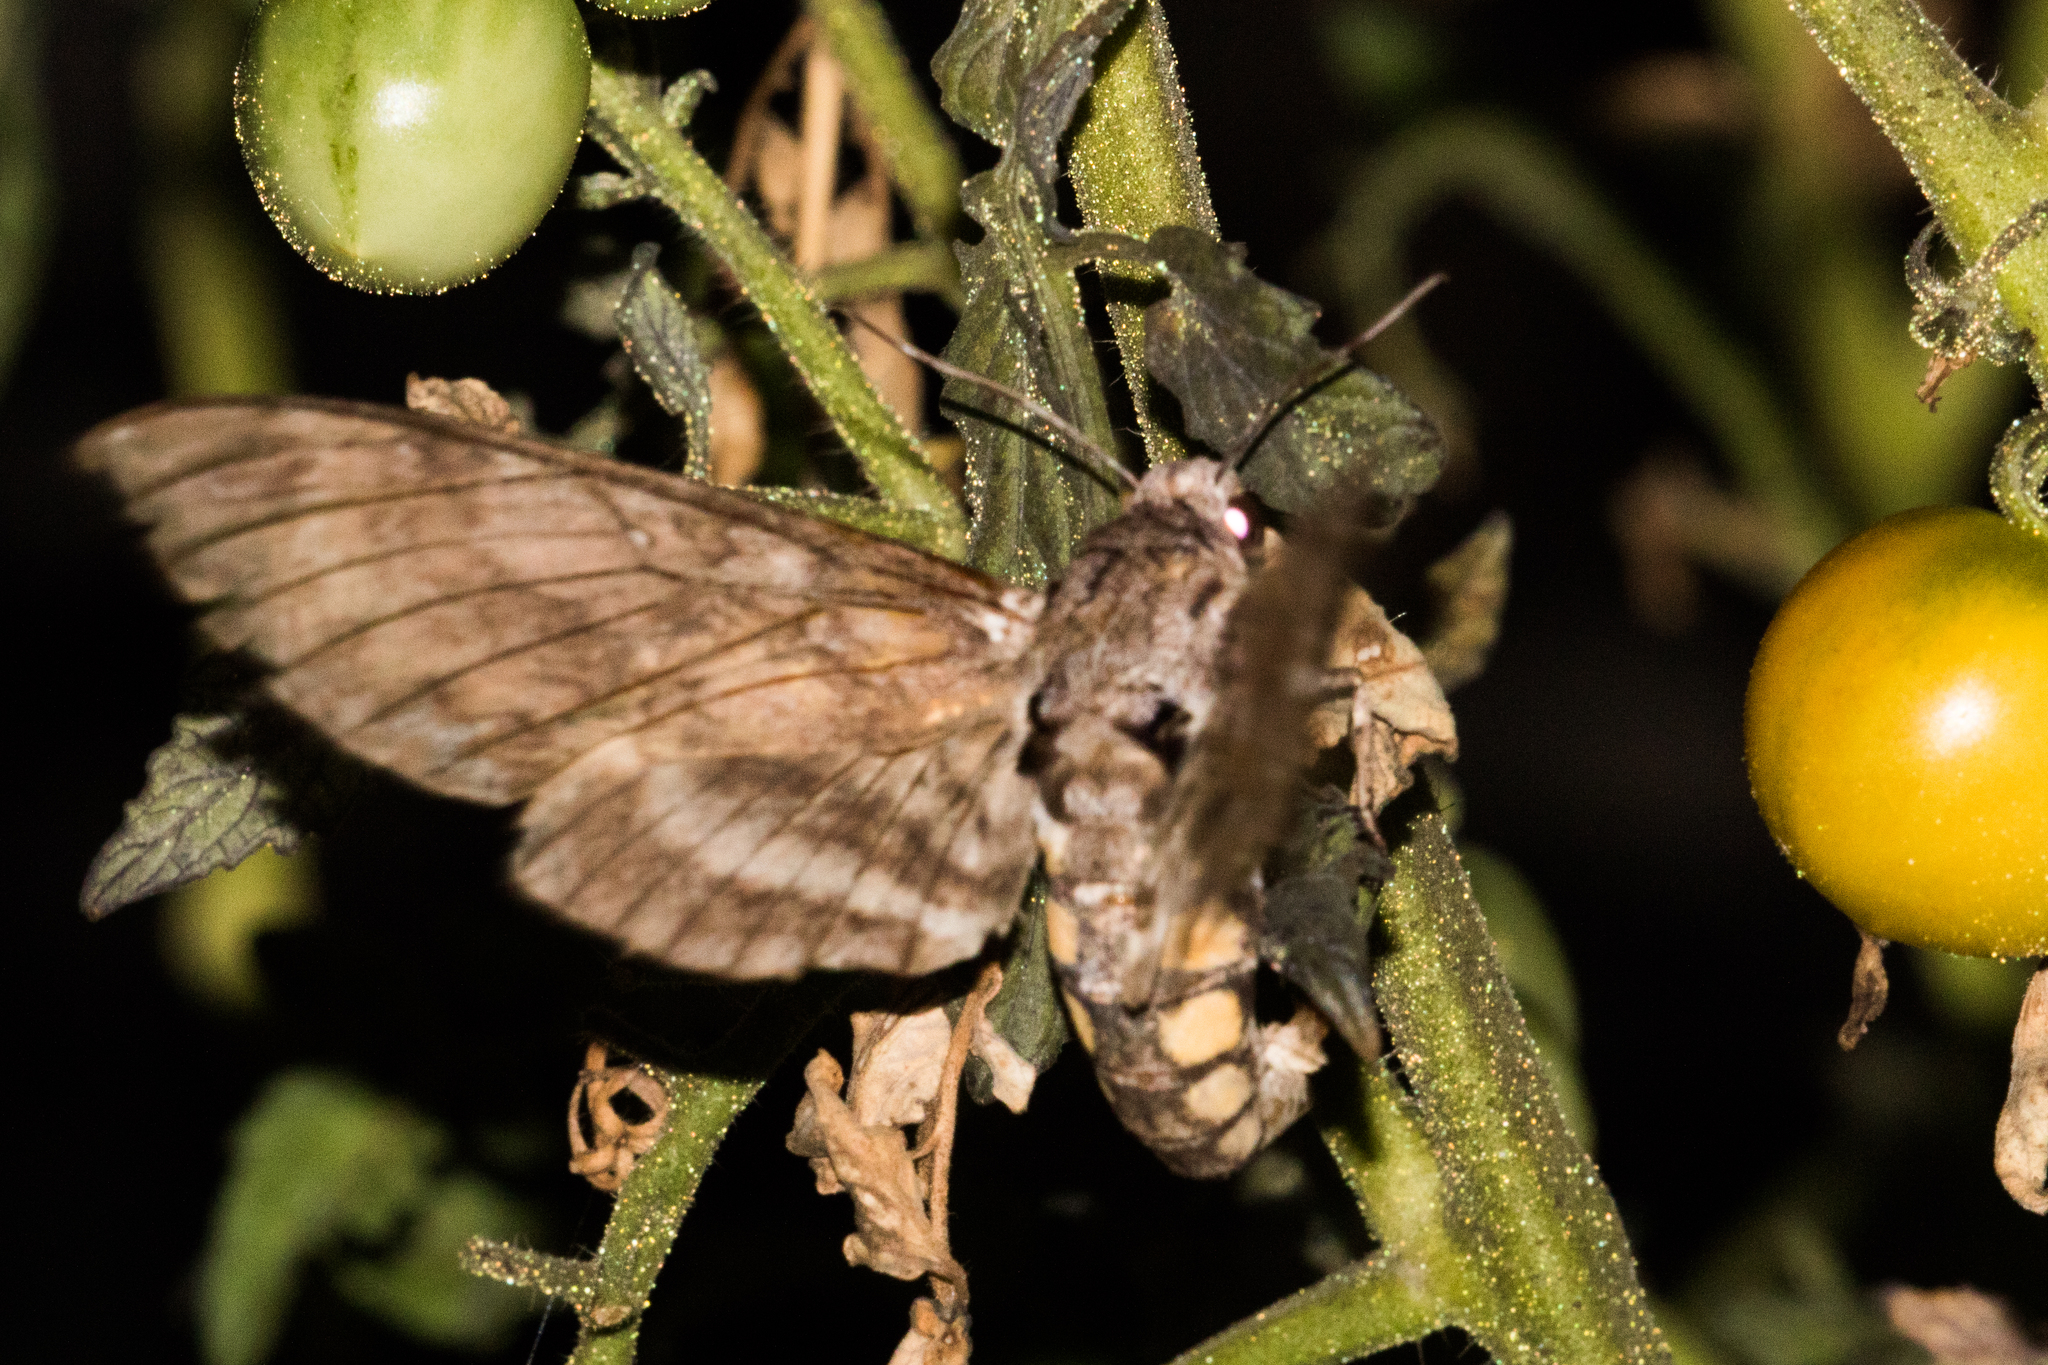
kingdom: Animalia
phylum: Arthropoda
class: Insecta
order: Lepidoptera
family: Sphingidae
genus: Manduca
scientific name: Manduca sexta
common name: Carolina sphinx
